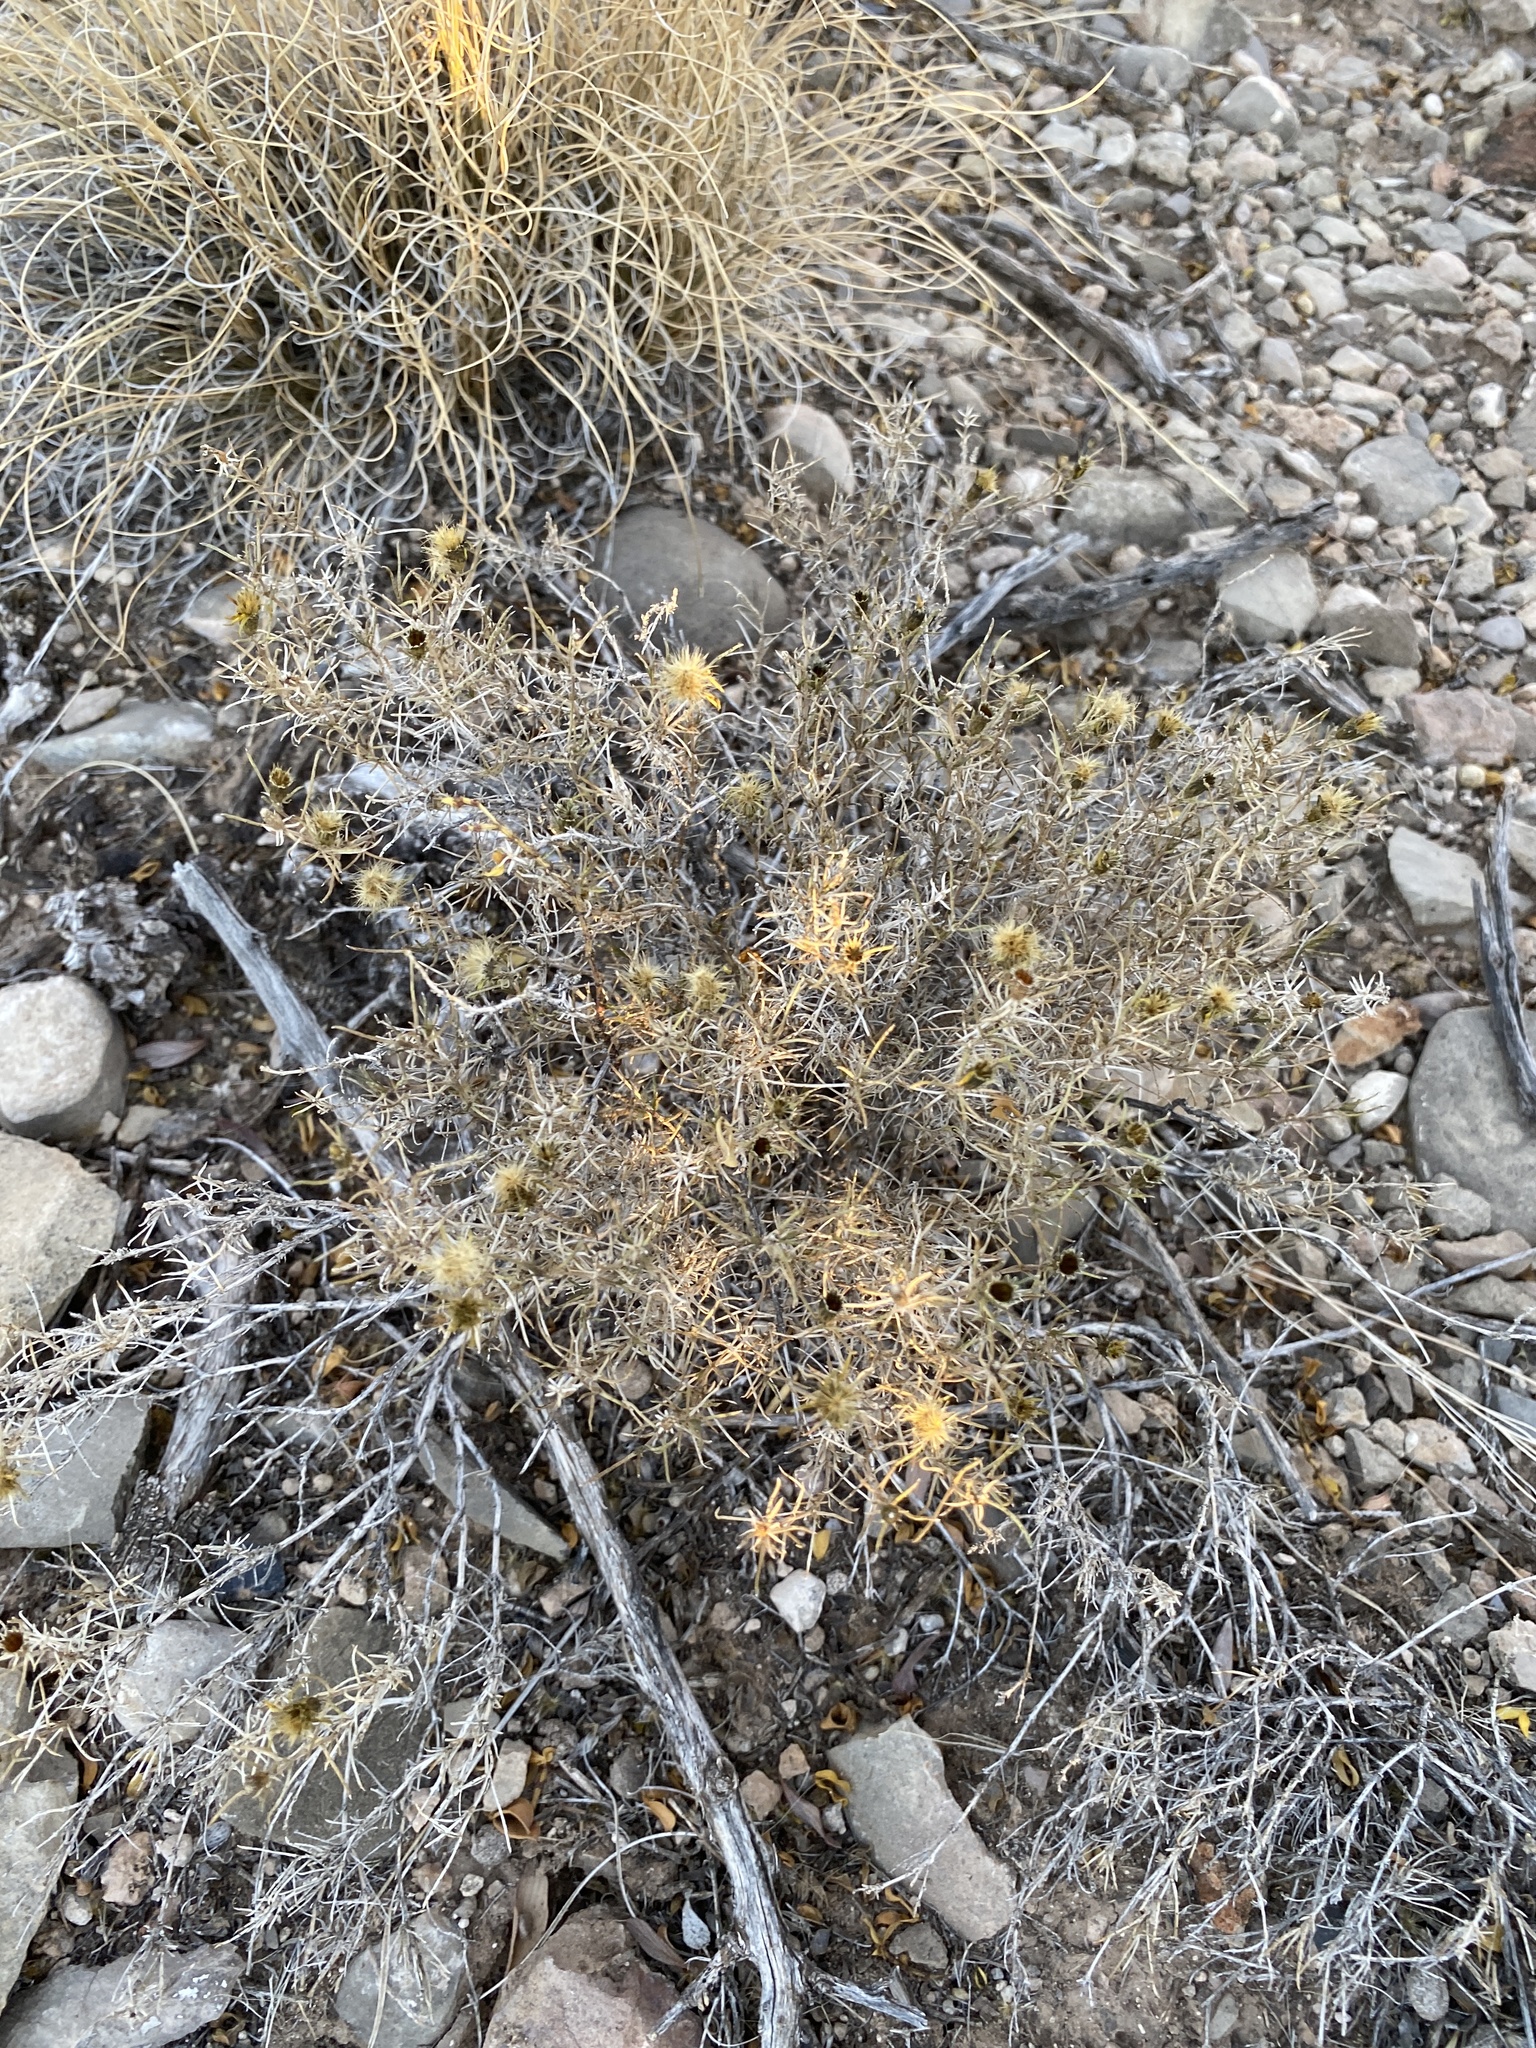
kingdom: Plantae
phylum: Tracheophyta
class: Magnoliopsida
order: Asterales
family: Asteraceae
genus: Thymophylla
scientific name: Thymophylla acerosa
